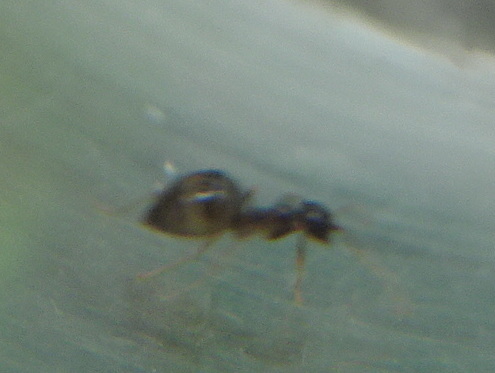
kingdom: Animalia
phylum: Arthropoda
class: Insecta
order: Hymenoptera
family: Formicidae
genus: Prenolepis
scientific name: Prenolepis imparis
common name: Small honey ant
